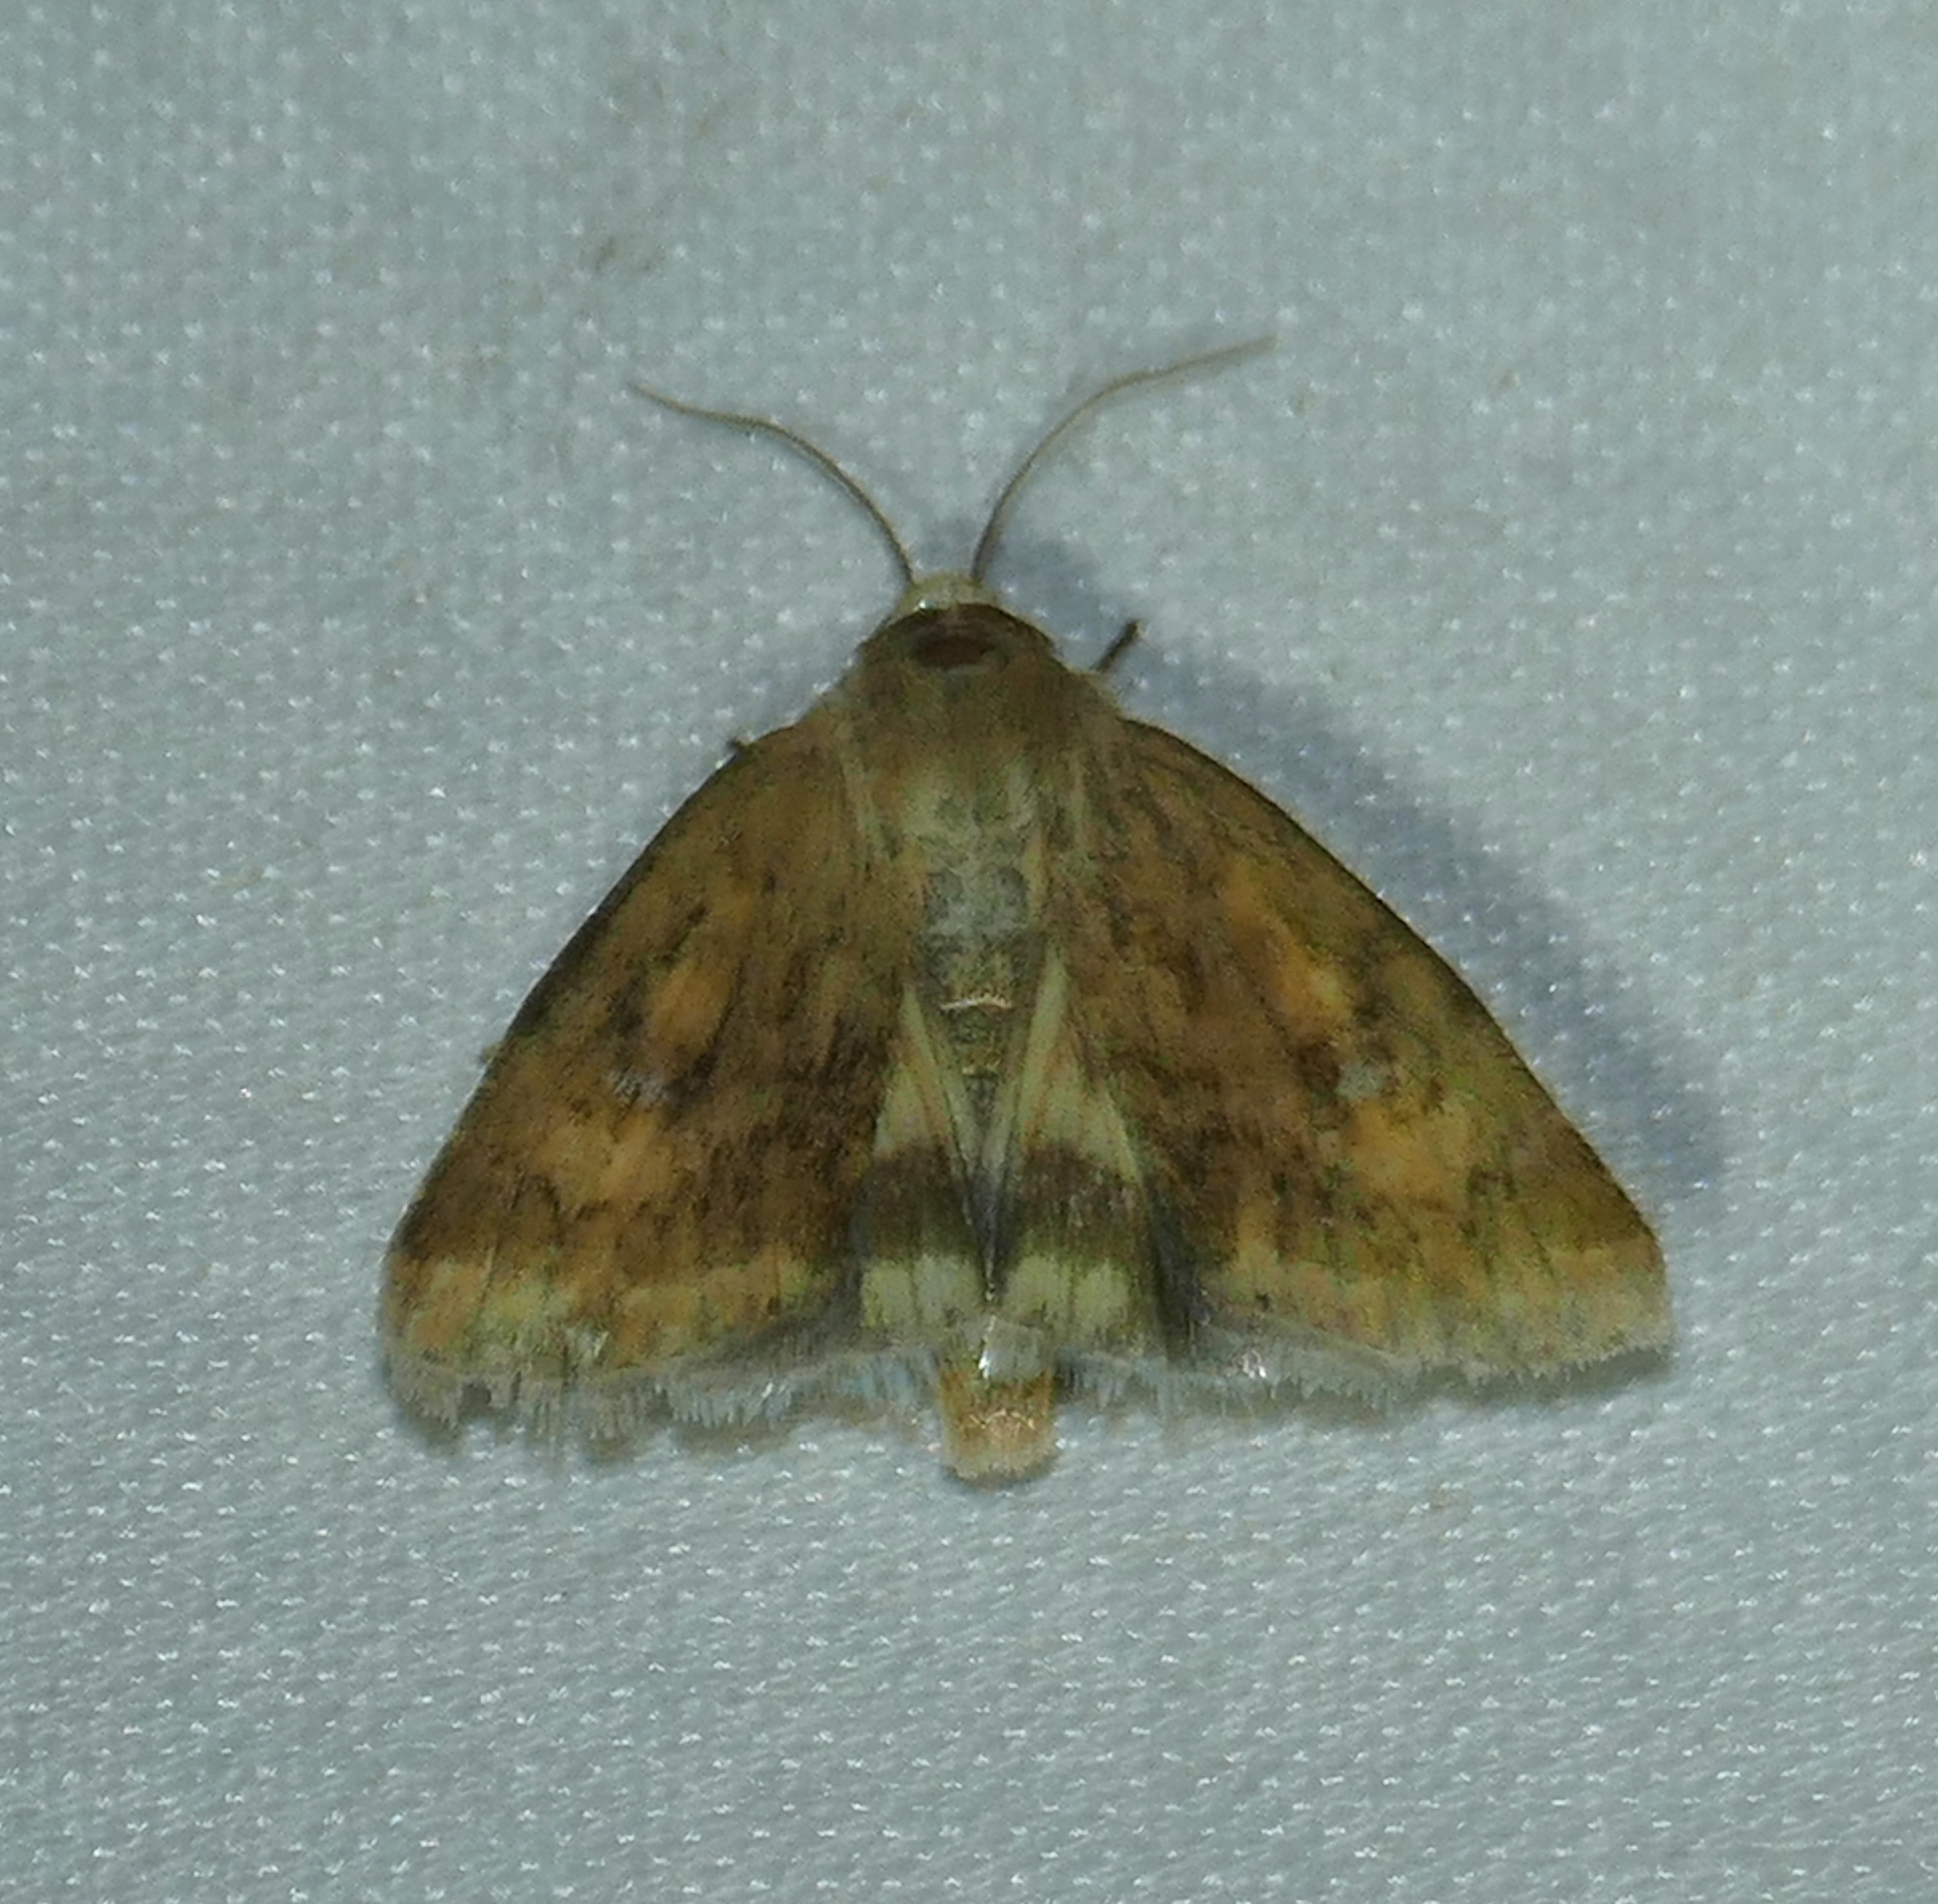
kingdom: Animalia
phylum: Arthropoda
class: Insecta
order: Lepidoptera
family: Noctuidae
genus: Heliocheilus
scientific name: Heliocheilus paradoxus
